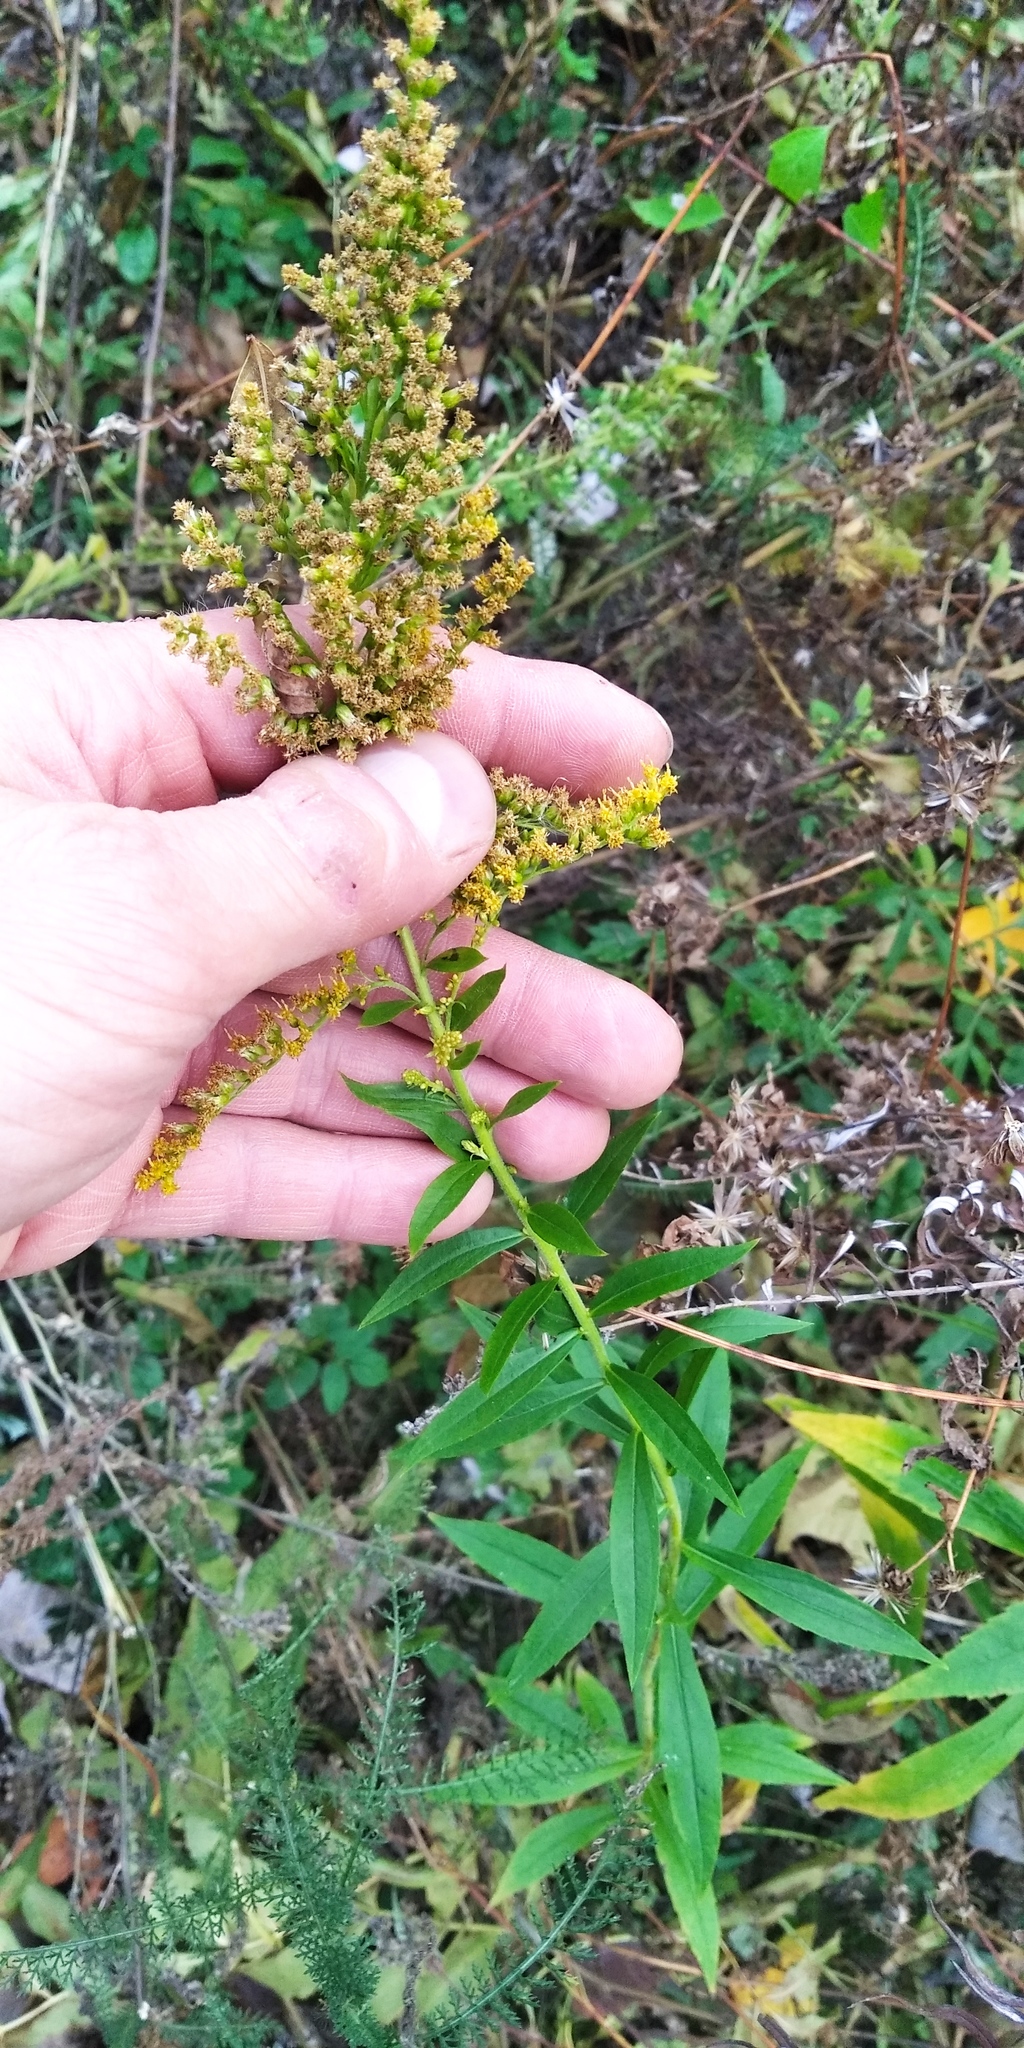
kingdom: Plantae
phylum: Tracheophyta
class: Magnoliopsida
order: Asterales
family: Asteraceae
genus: Solidago
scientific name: Solidago canadensis
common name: Canada goldenrod
